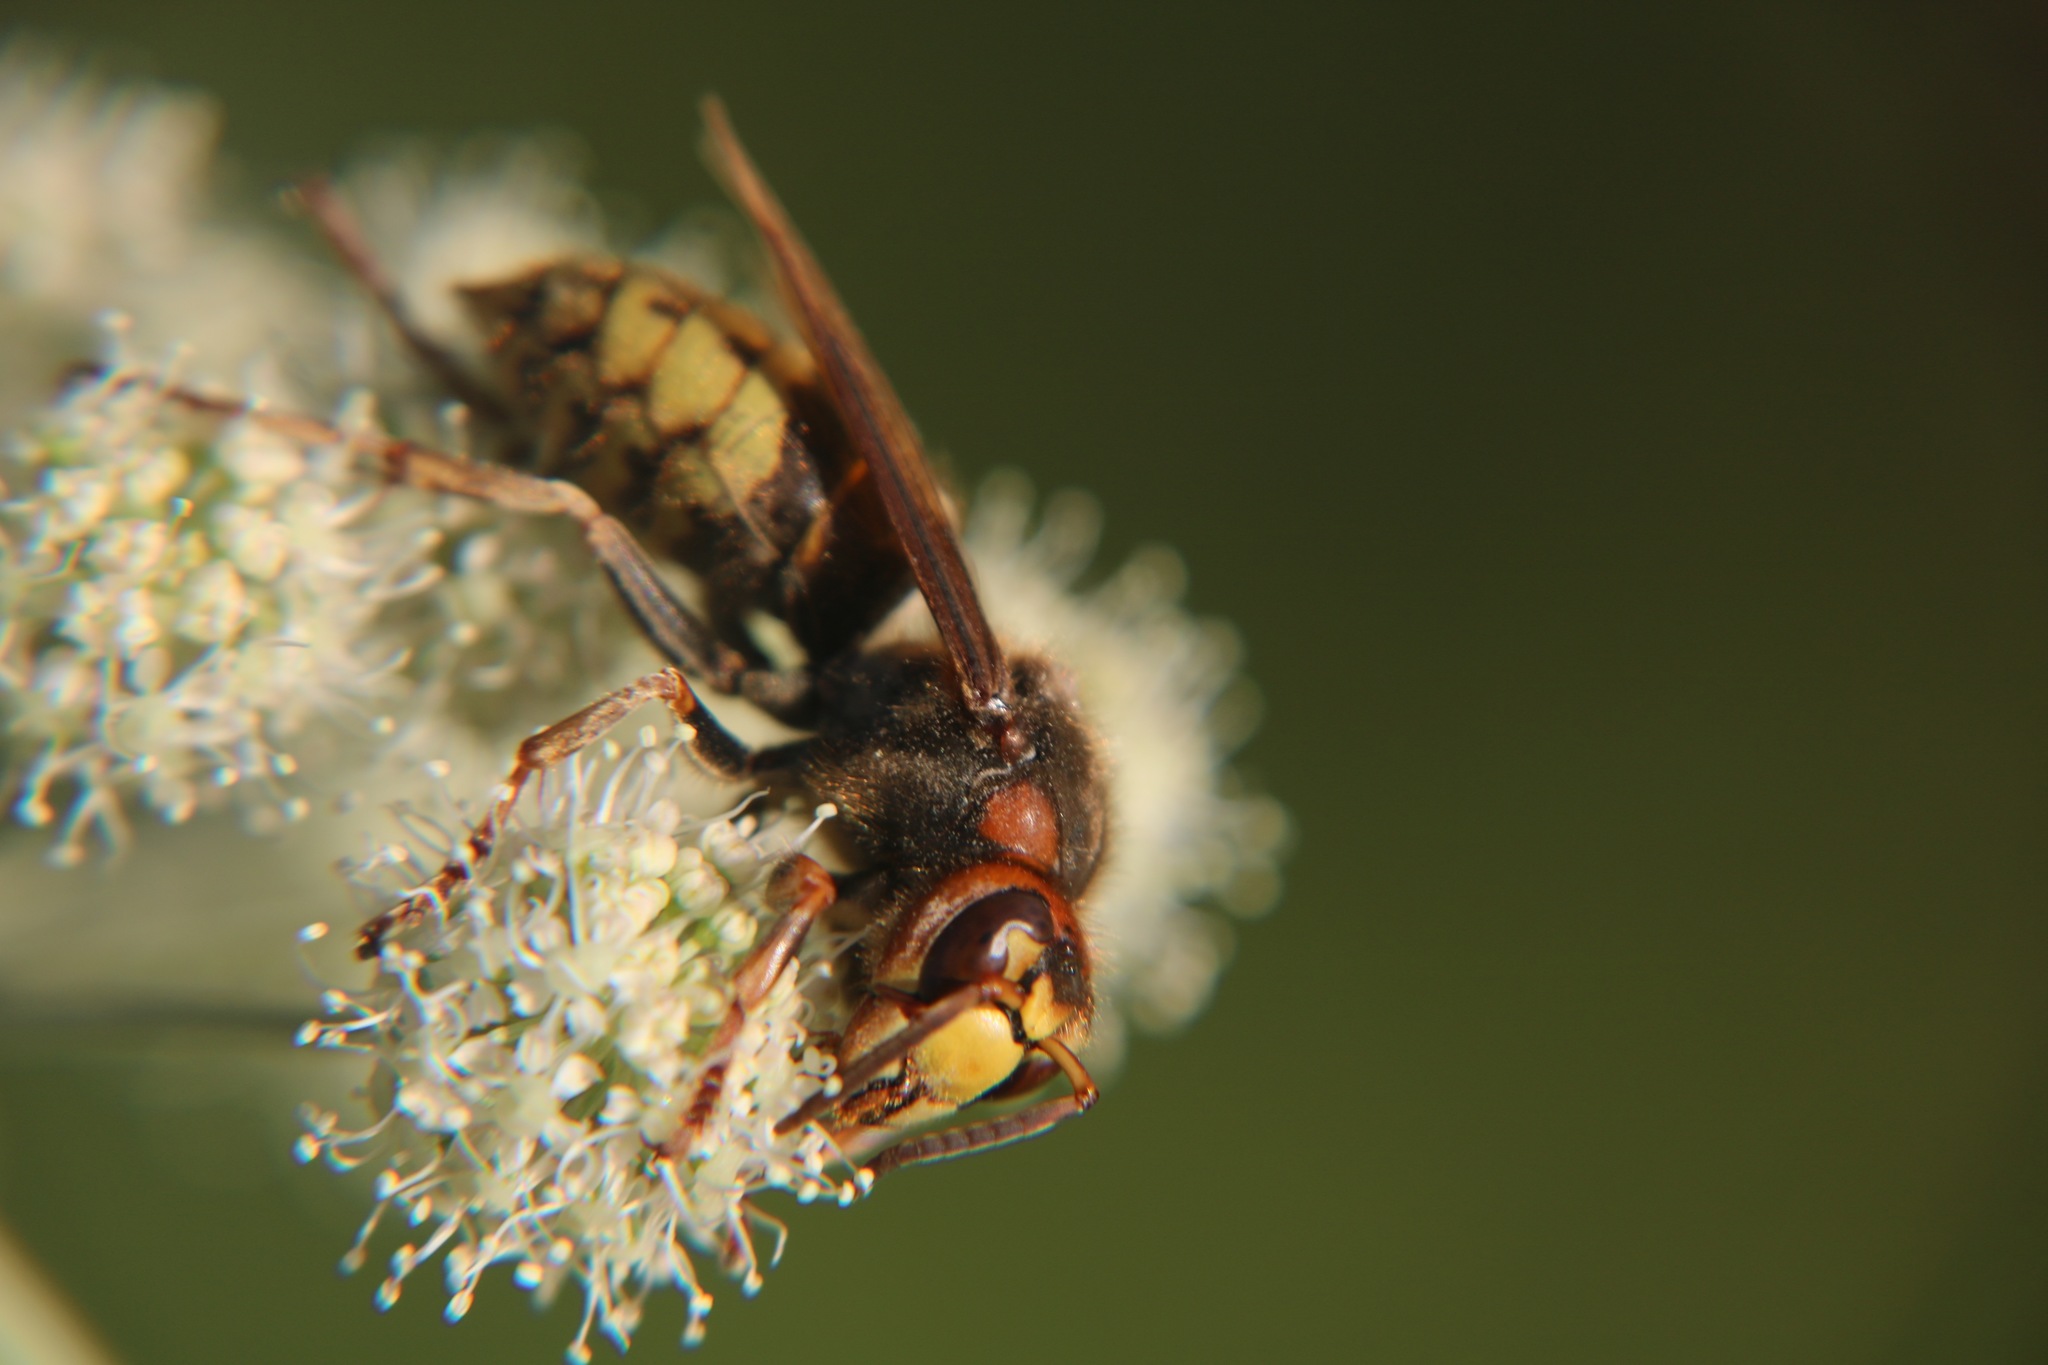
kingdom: Animalia
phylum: Arthropoda
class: Insecta
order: Hymenoptera
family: Vespidae
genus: Vespa
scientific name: Vespa crabro
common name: Hornet
